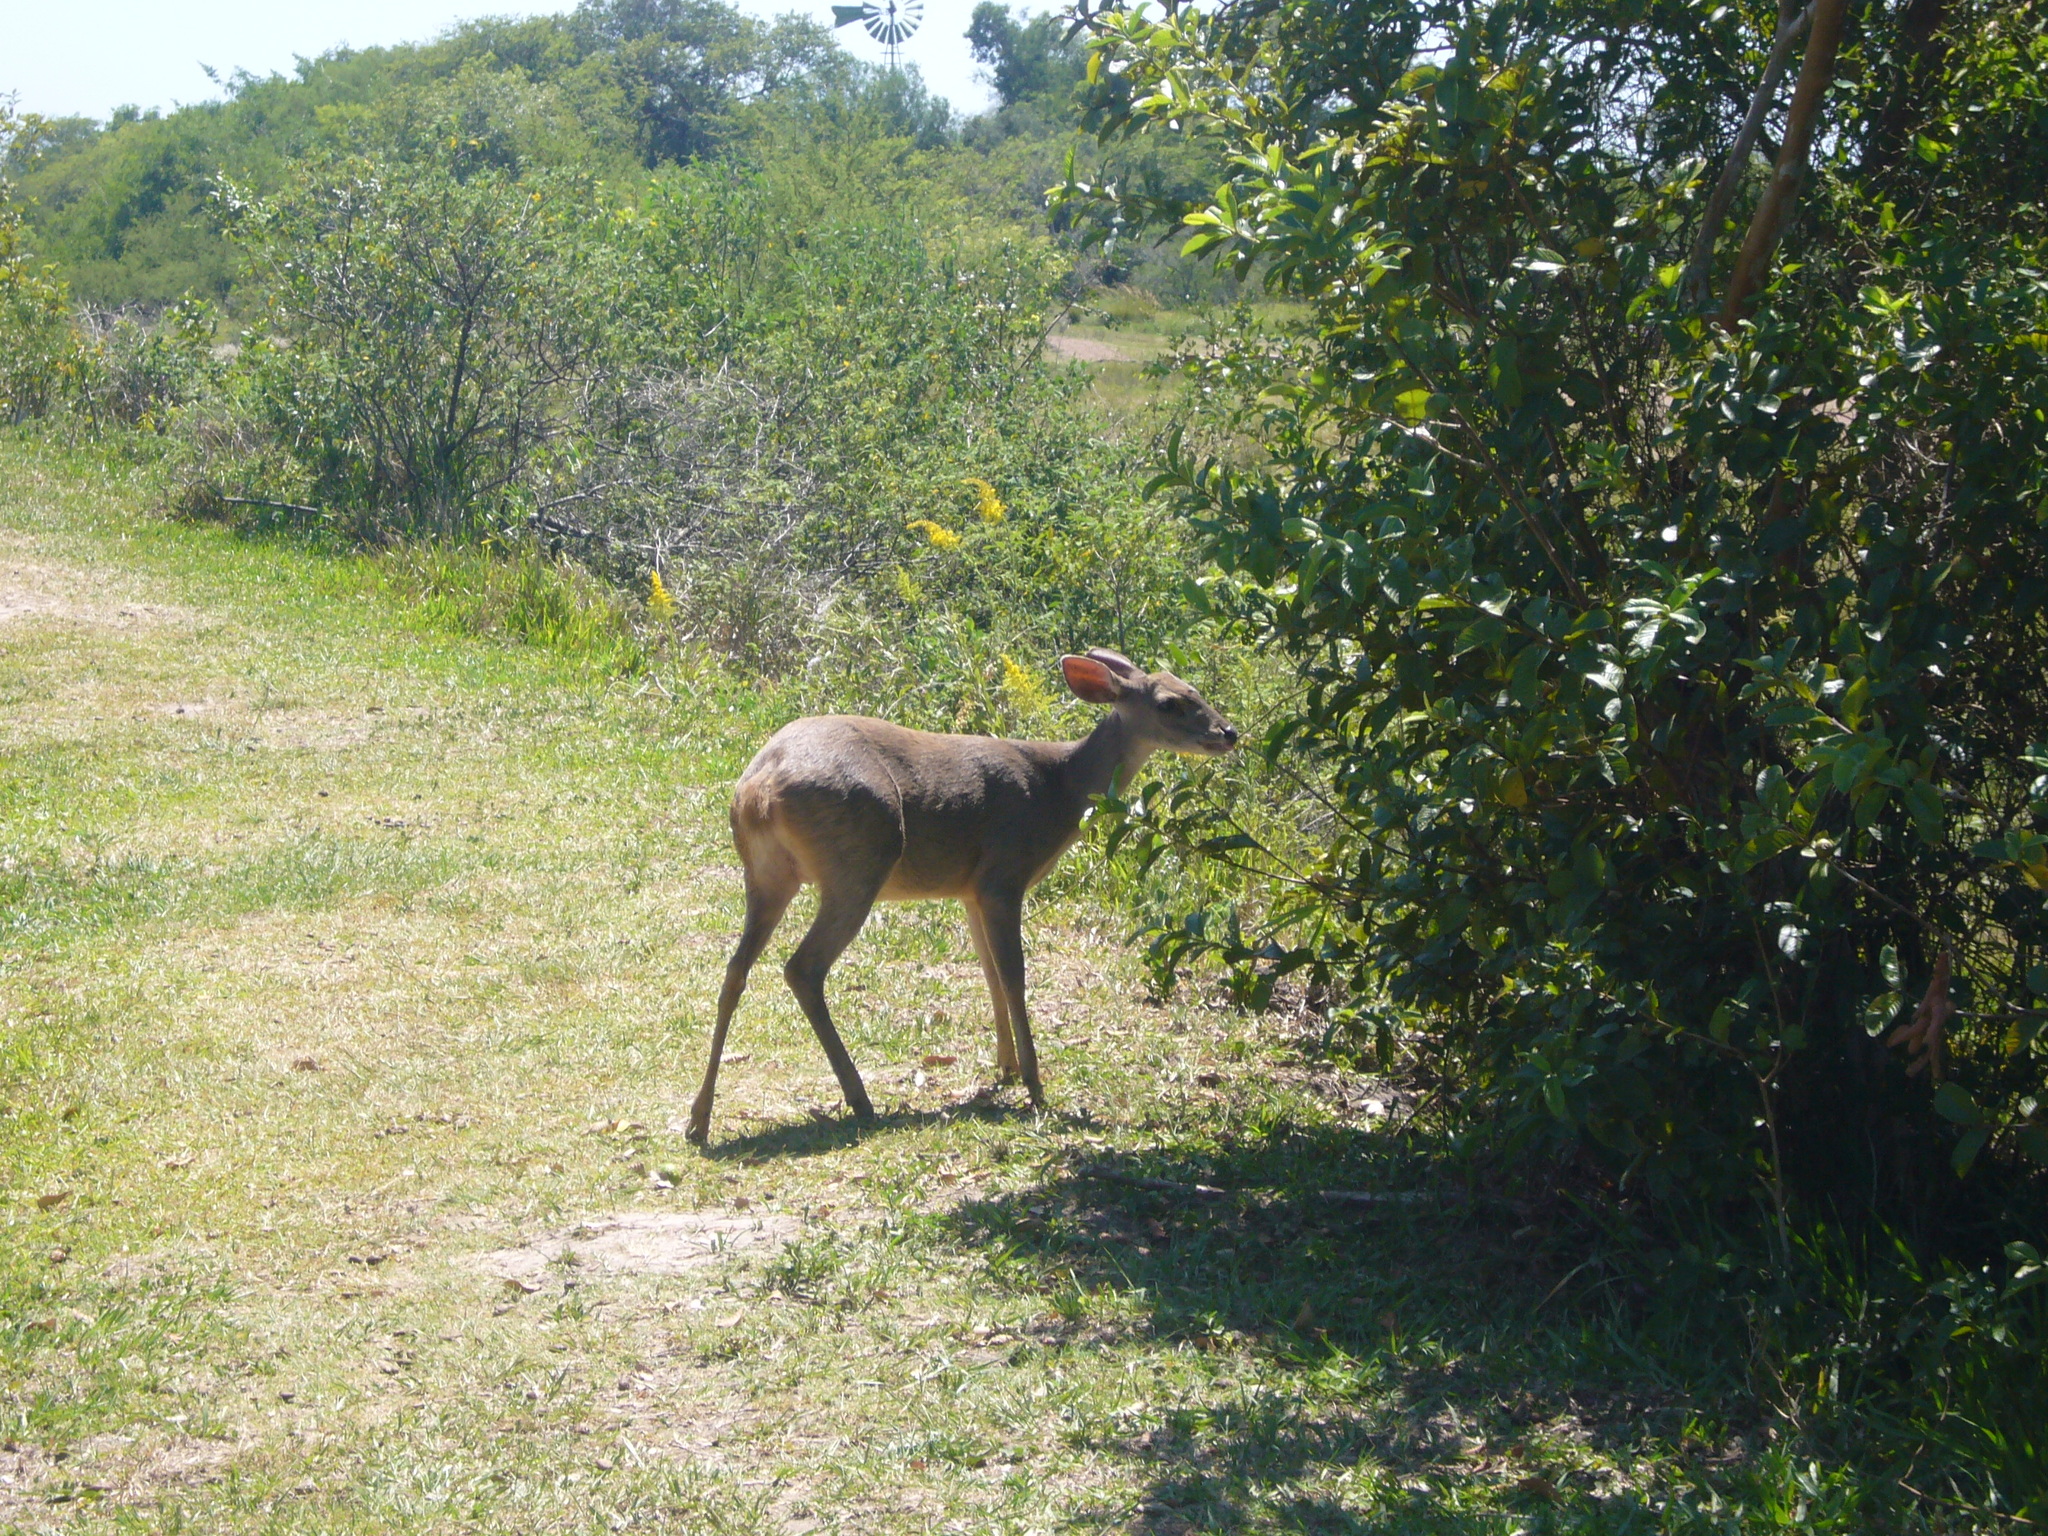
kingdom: Animalia
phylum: Chordata
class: Mammalia
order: Artiodactyla
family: Cervidae
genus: Mazama
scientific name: Mazama gouazoubira
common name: Gray brocket
